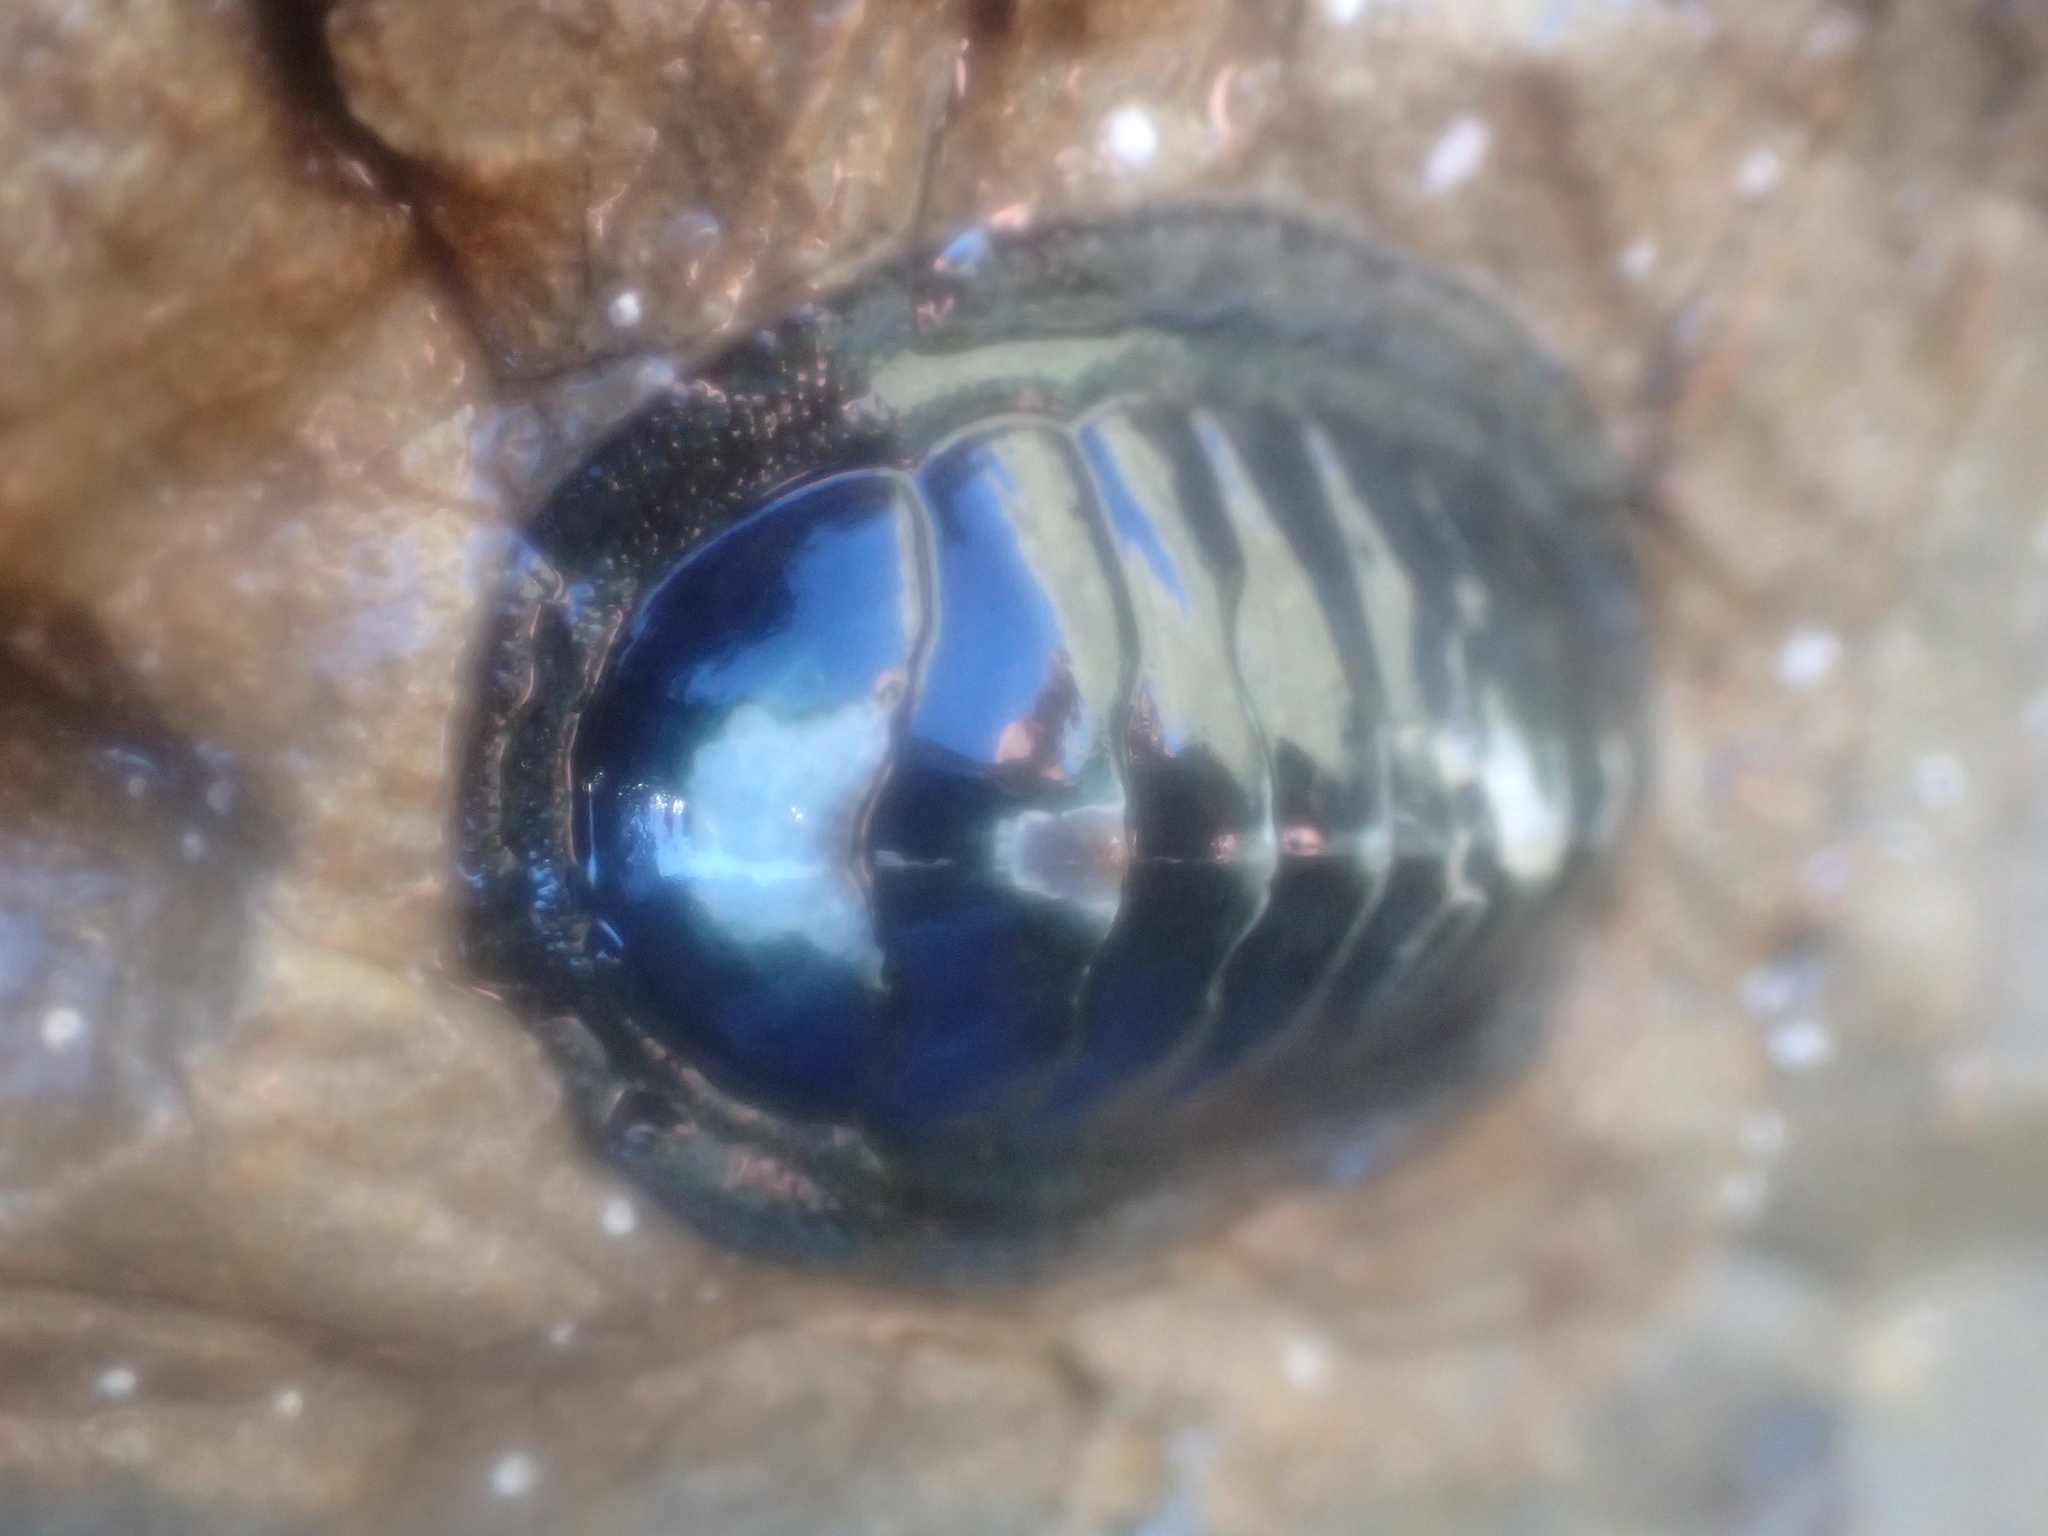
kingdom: Animalia
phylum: Mollusca
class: Polyplacophora
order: Chitonida
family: Chitonidae
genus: Chiton
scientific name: Chiton glaucus
